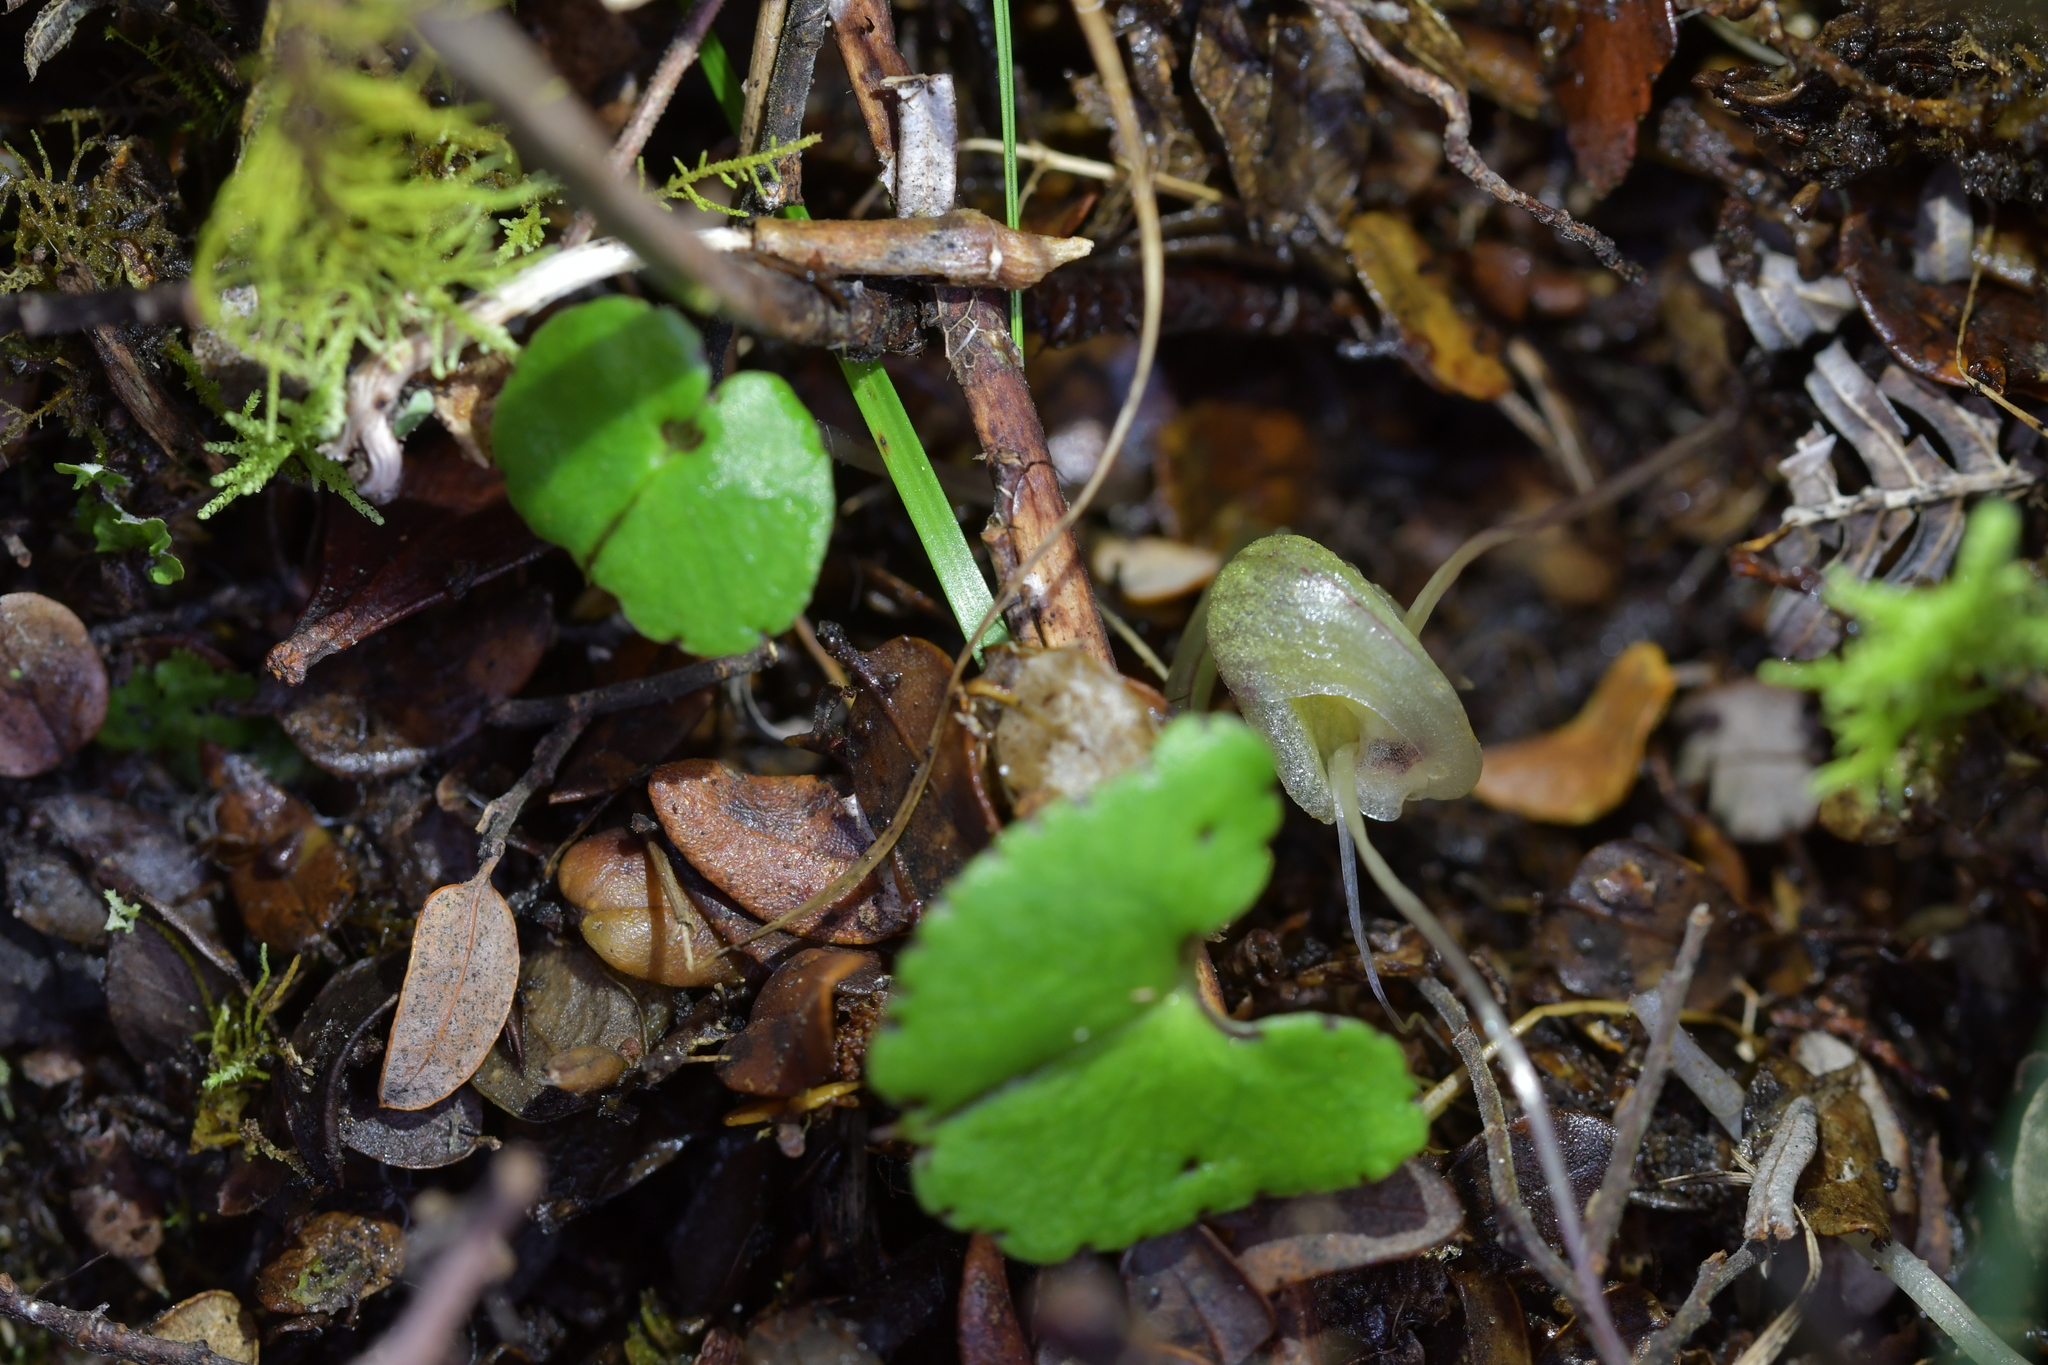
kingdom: Plantae
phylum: Tracheophyta
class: Liliopsida
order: Asparagales
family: Orchidaceae
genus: Corybas
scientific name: Corybas walliae
